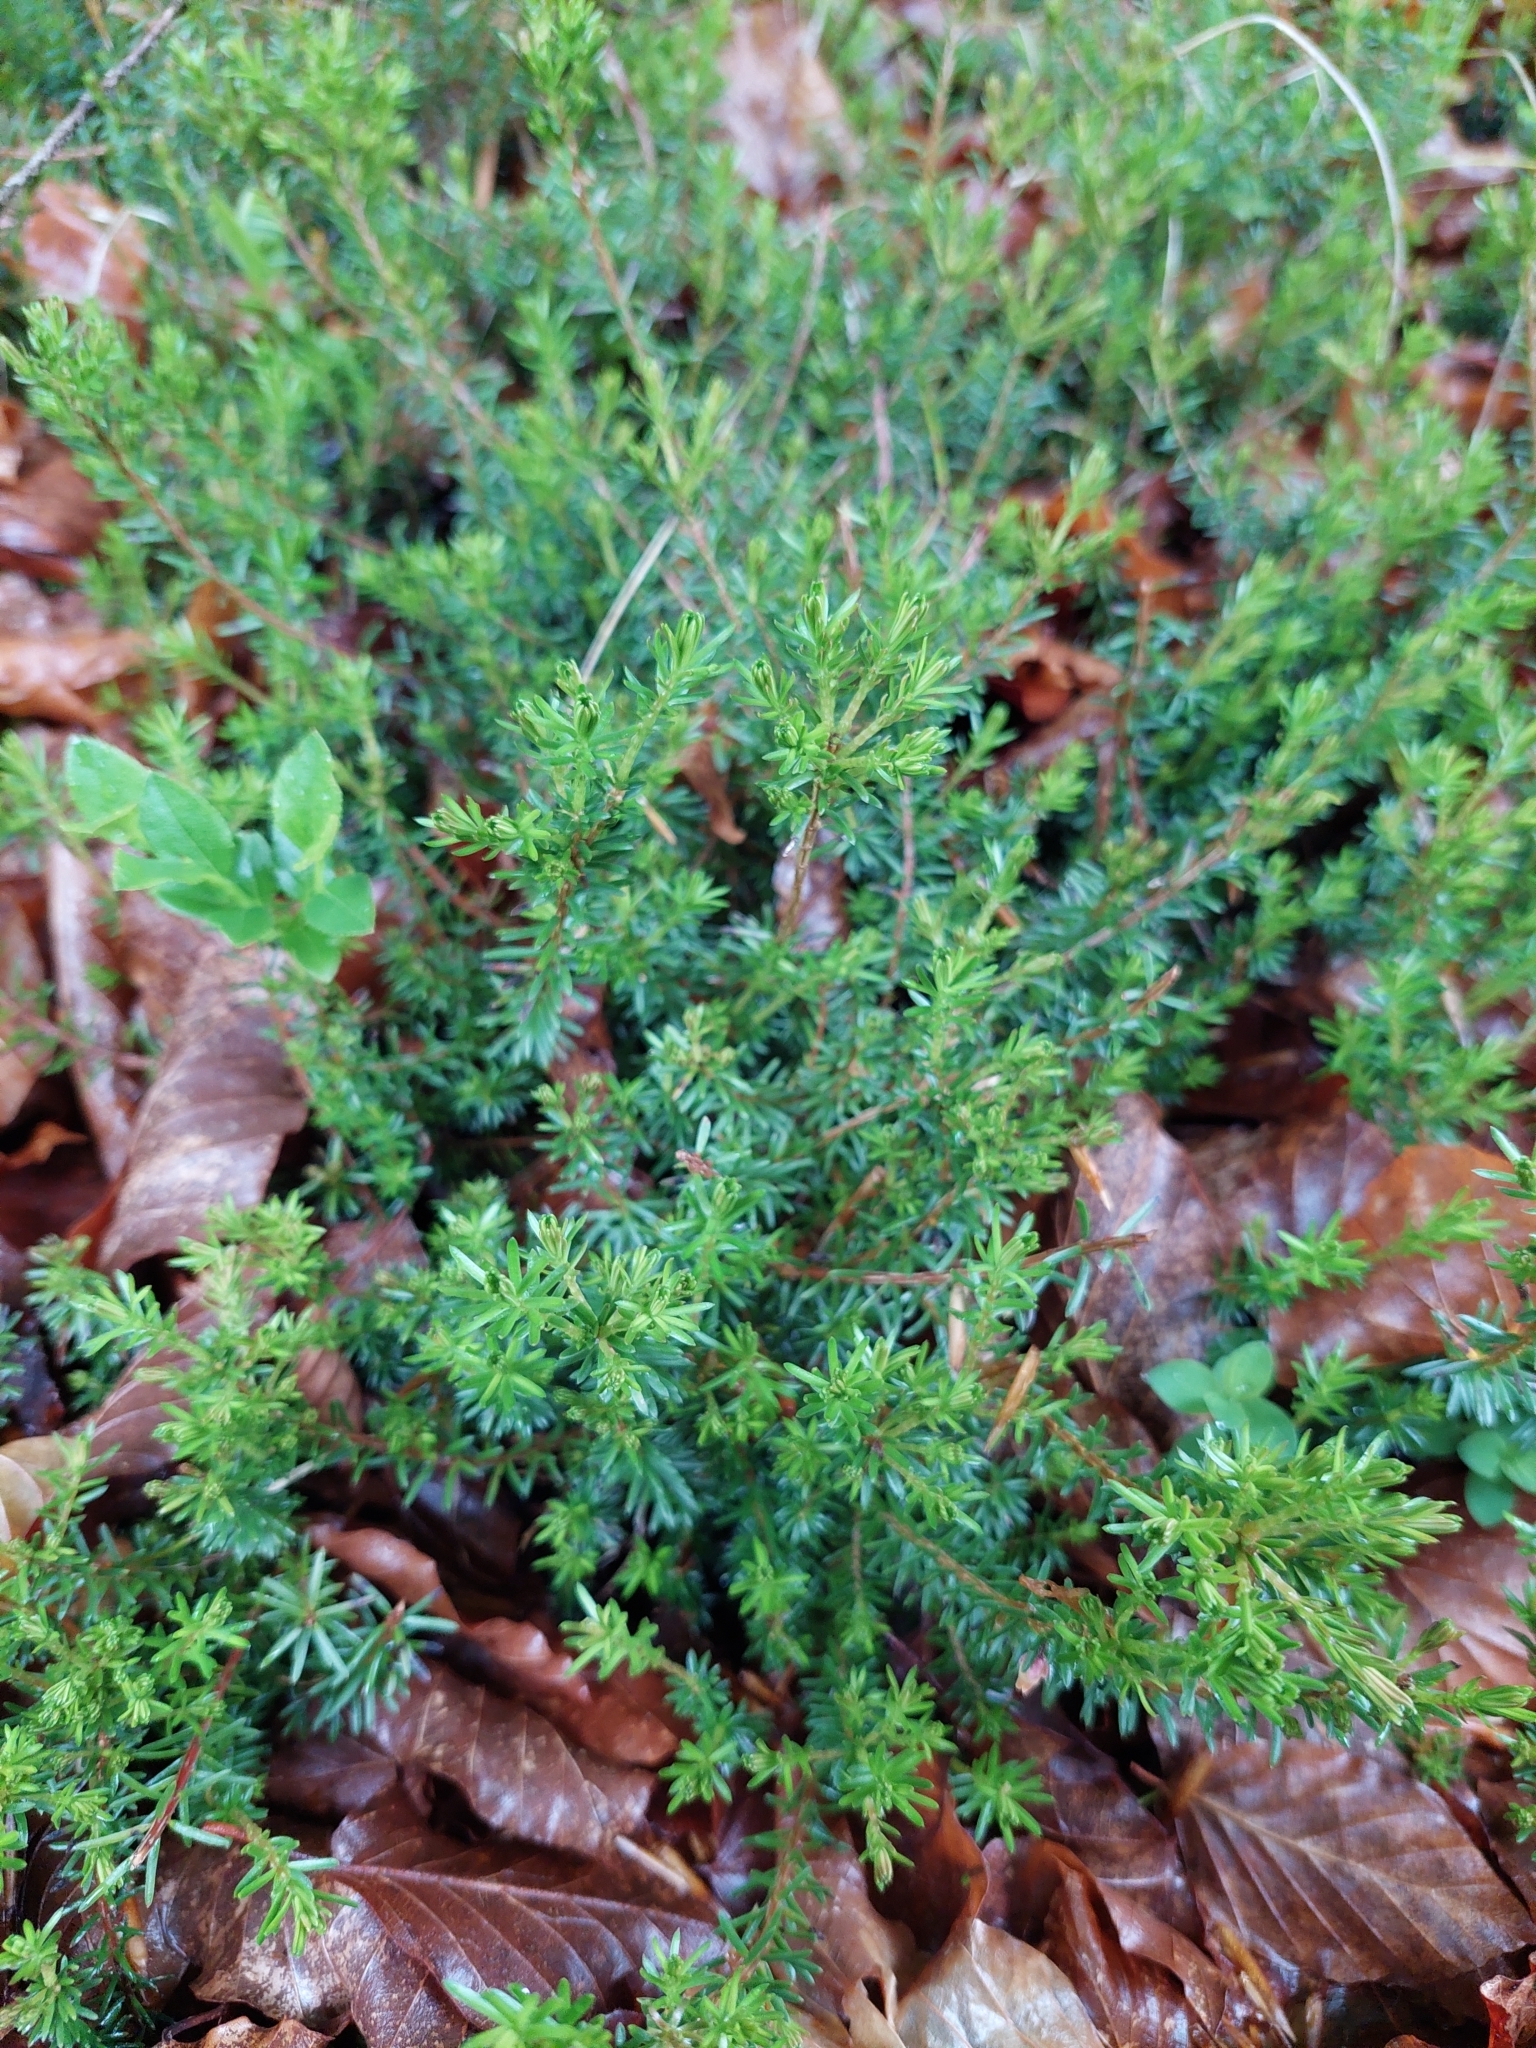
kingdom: Plantae
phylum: Tracheophyta
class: Magnoliopsida
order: Ericales
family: Ericaceae
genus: Erica
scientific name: Erica carnea
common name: Winter heath
